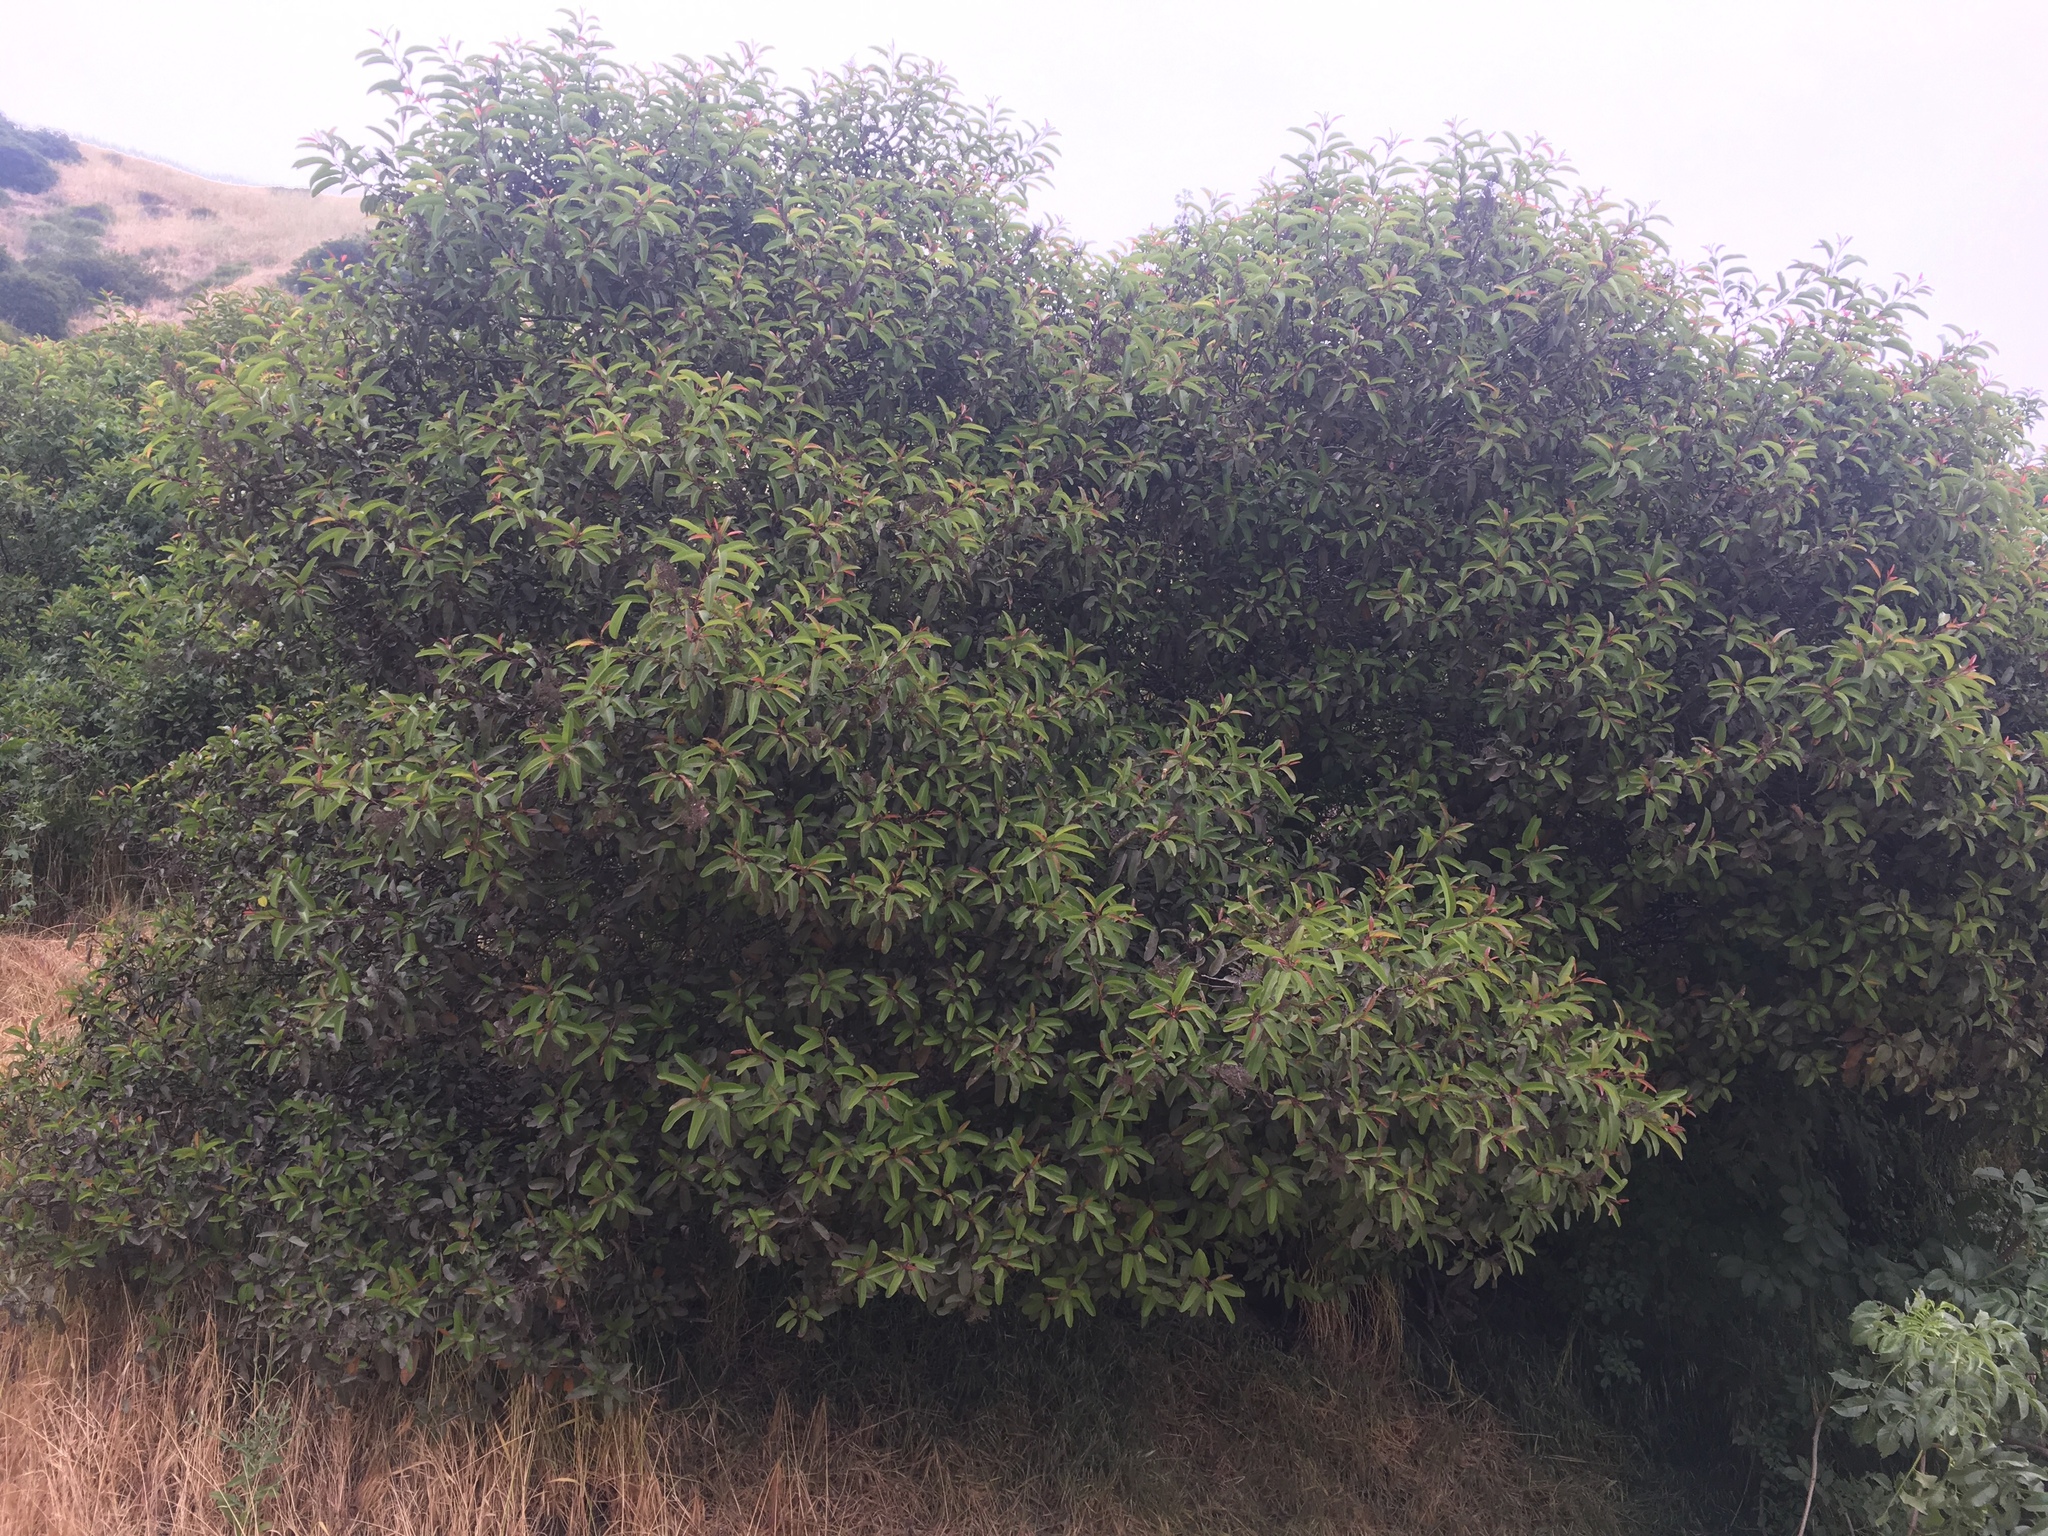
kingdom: Plantae
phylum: Tracheophyta
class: Magnoliopsida
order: Sapindales
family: Anacardiaceae
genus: Malosma
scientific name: Malosma laurina
